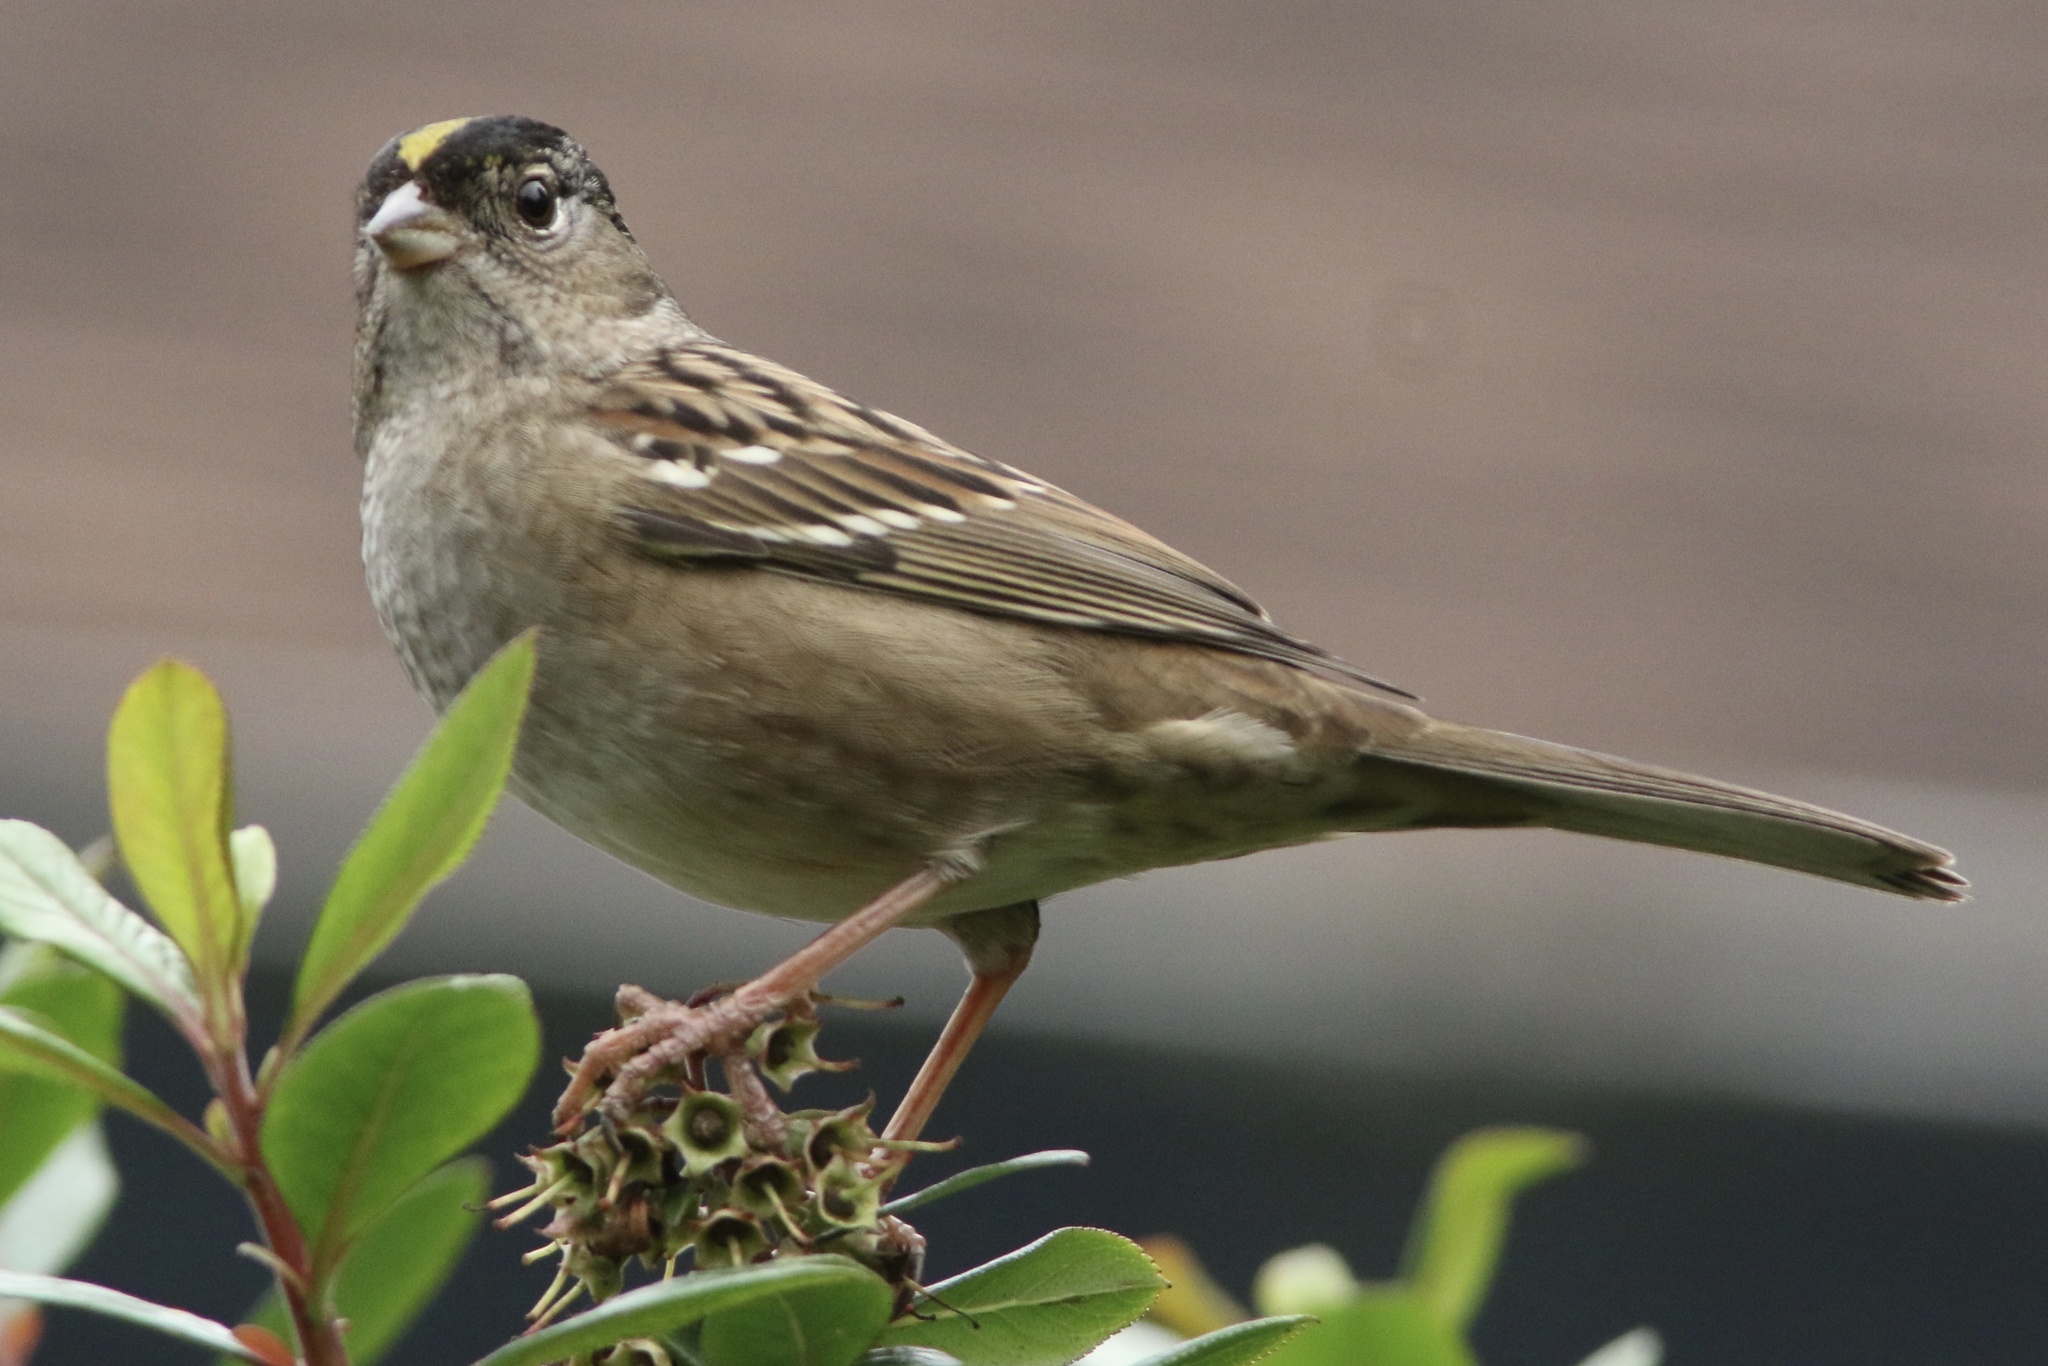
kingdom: Animalia
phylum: Chordata
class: Aves
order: Passeriformes
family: Passerellidae
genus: Zonotrichia
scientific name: Zonotrichia atricapilla
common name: Golden-crowned sparrow
